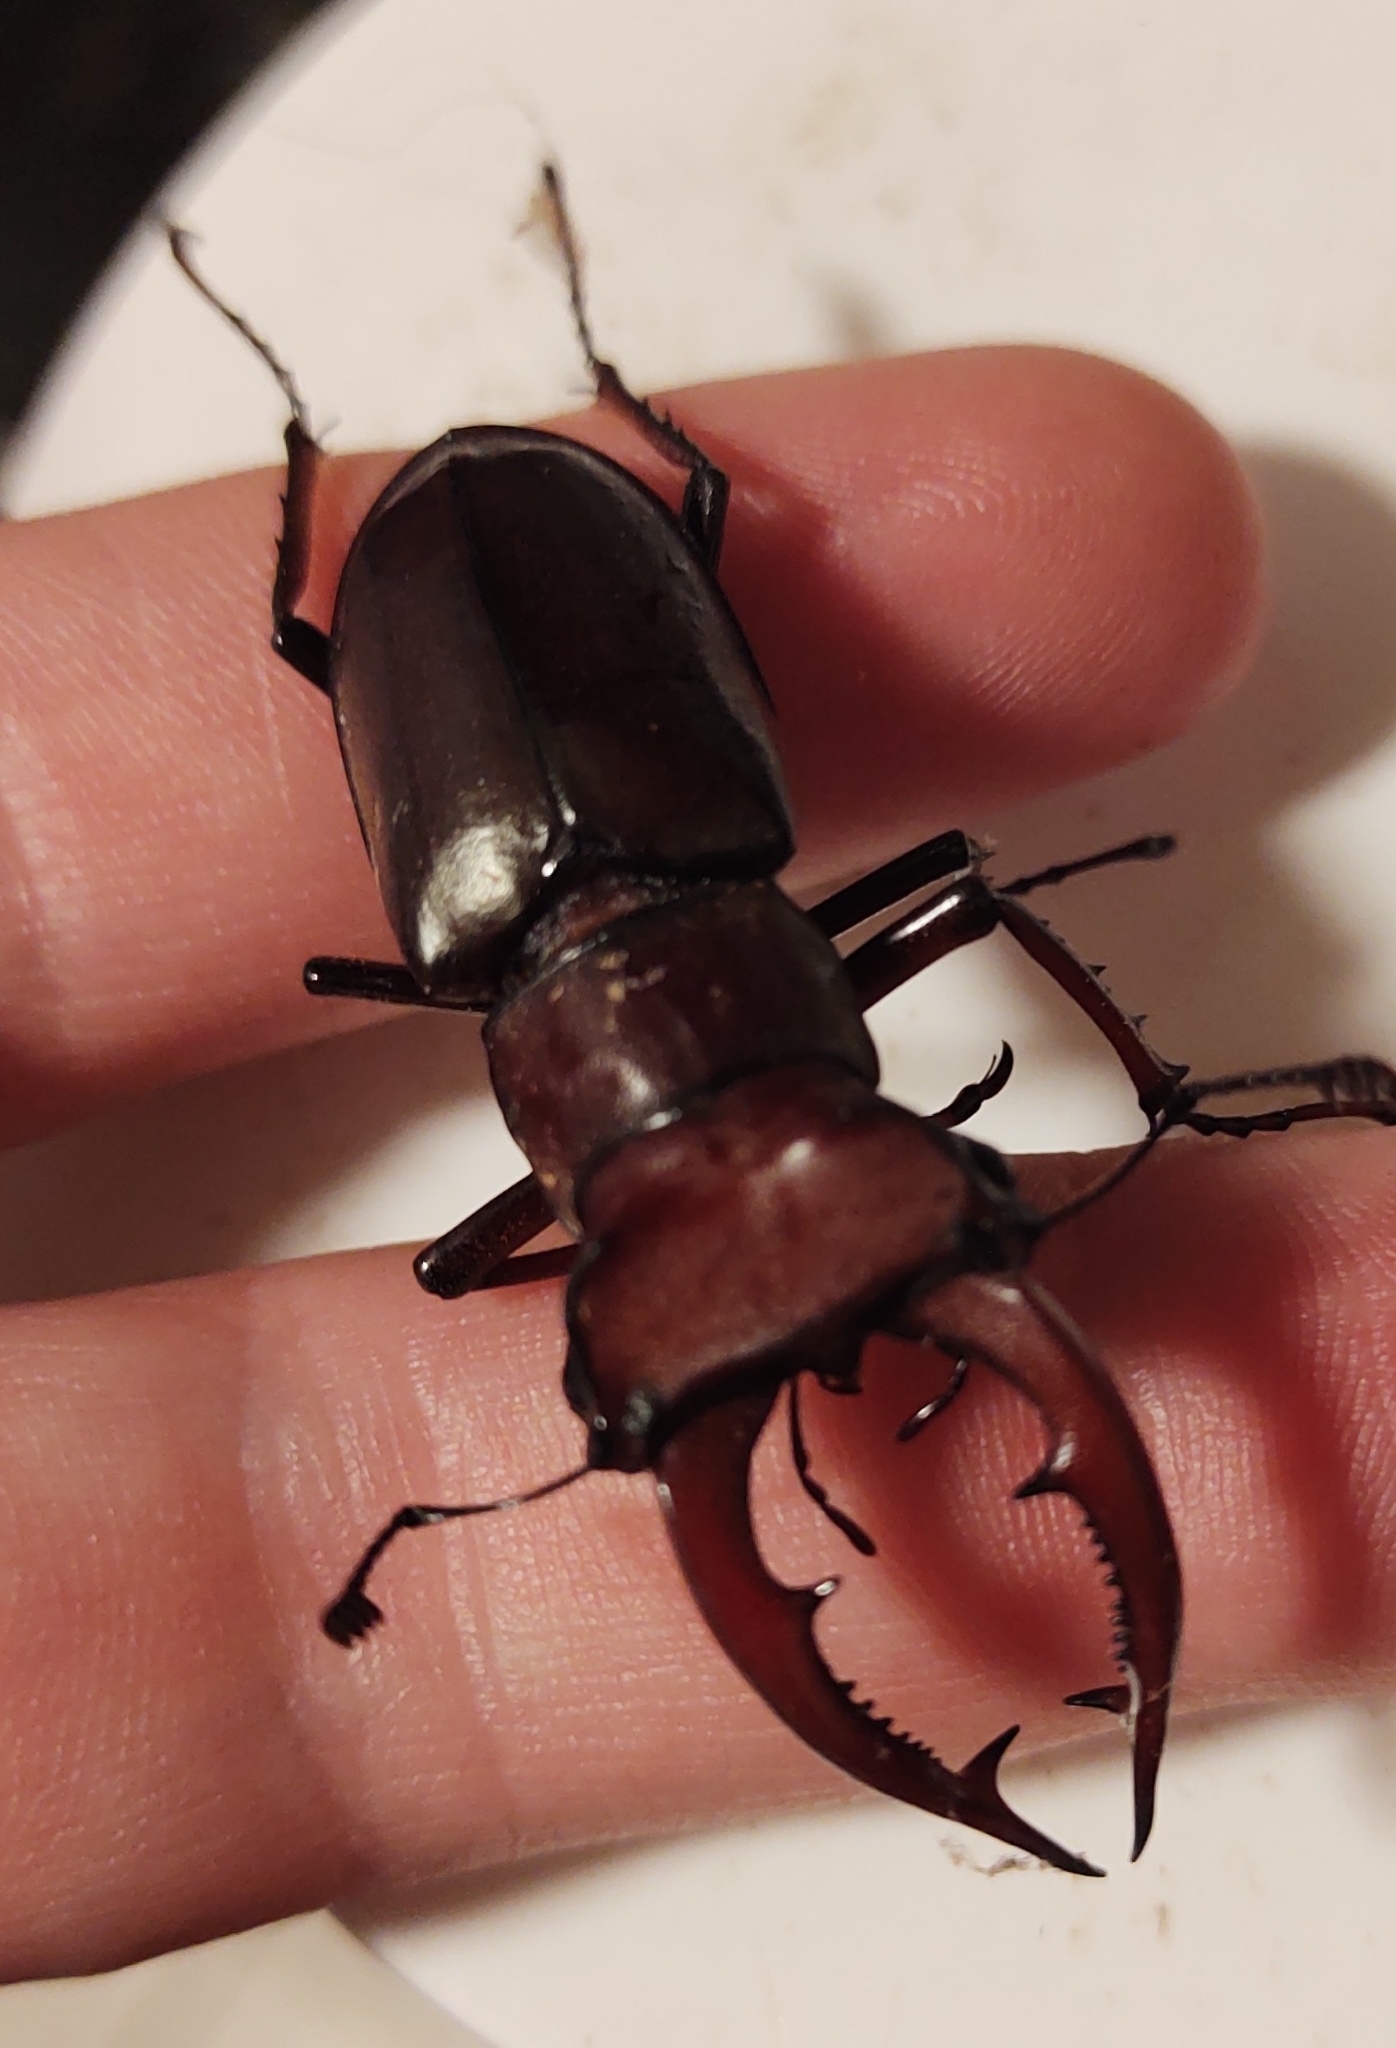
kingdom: Animalia
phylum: Arthropoda
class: Insecta
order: Coleoptera
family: Lucanidae
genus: Lucanus
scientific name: Lucanus elaphus
